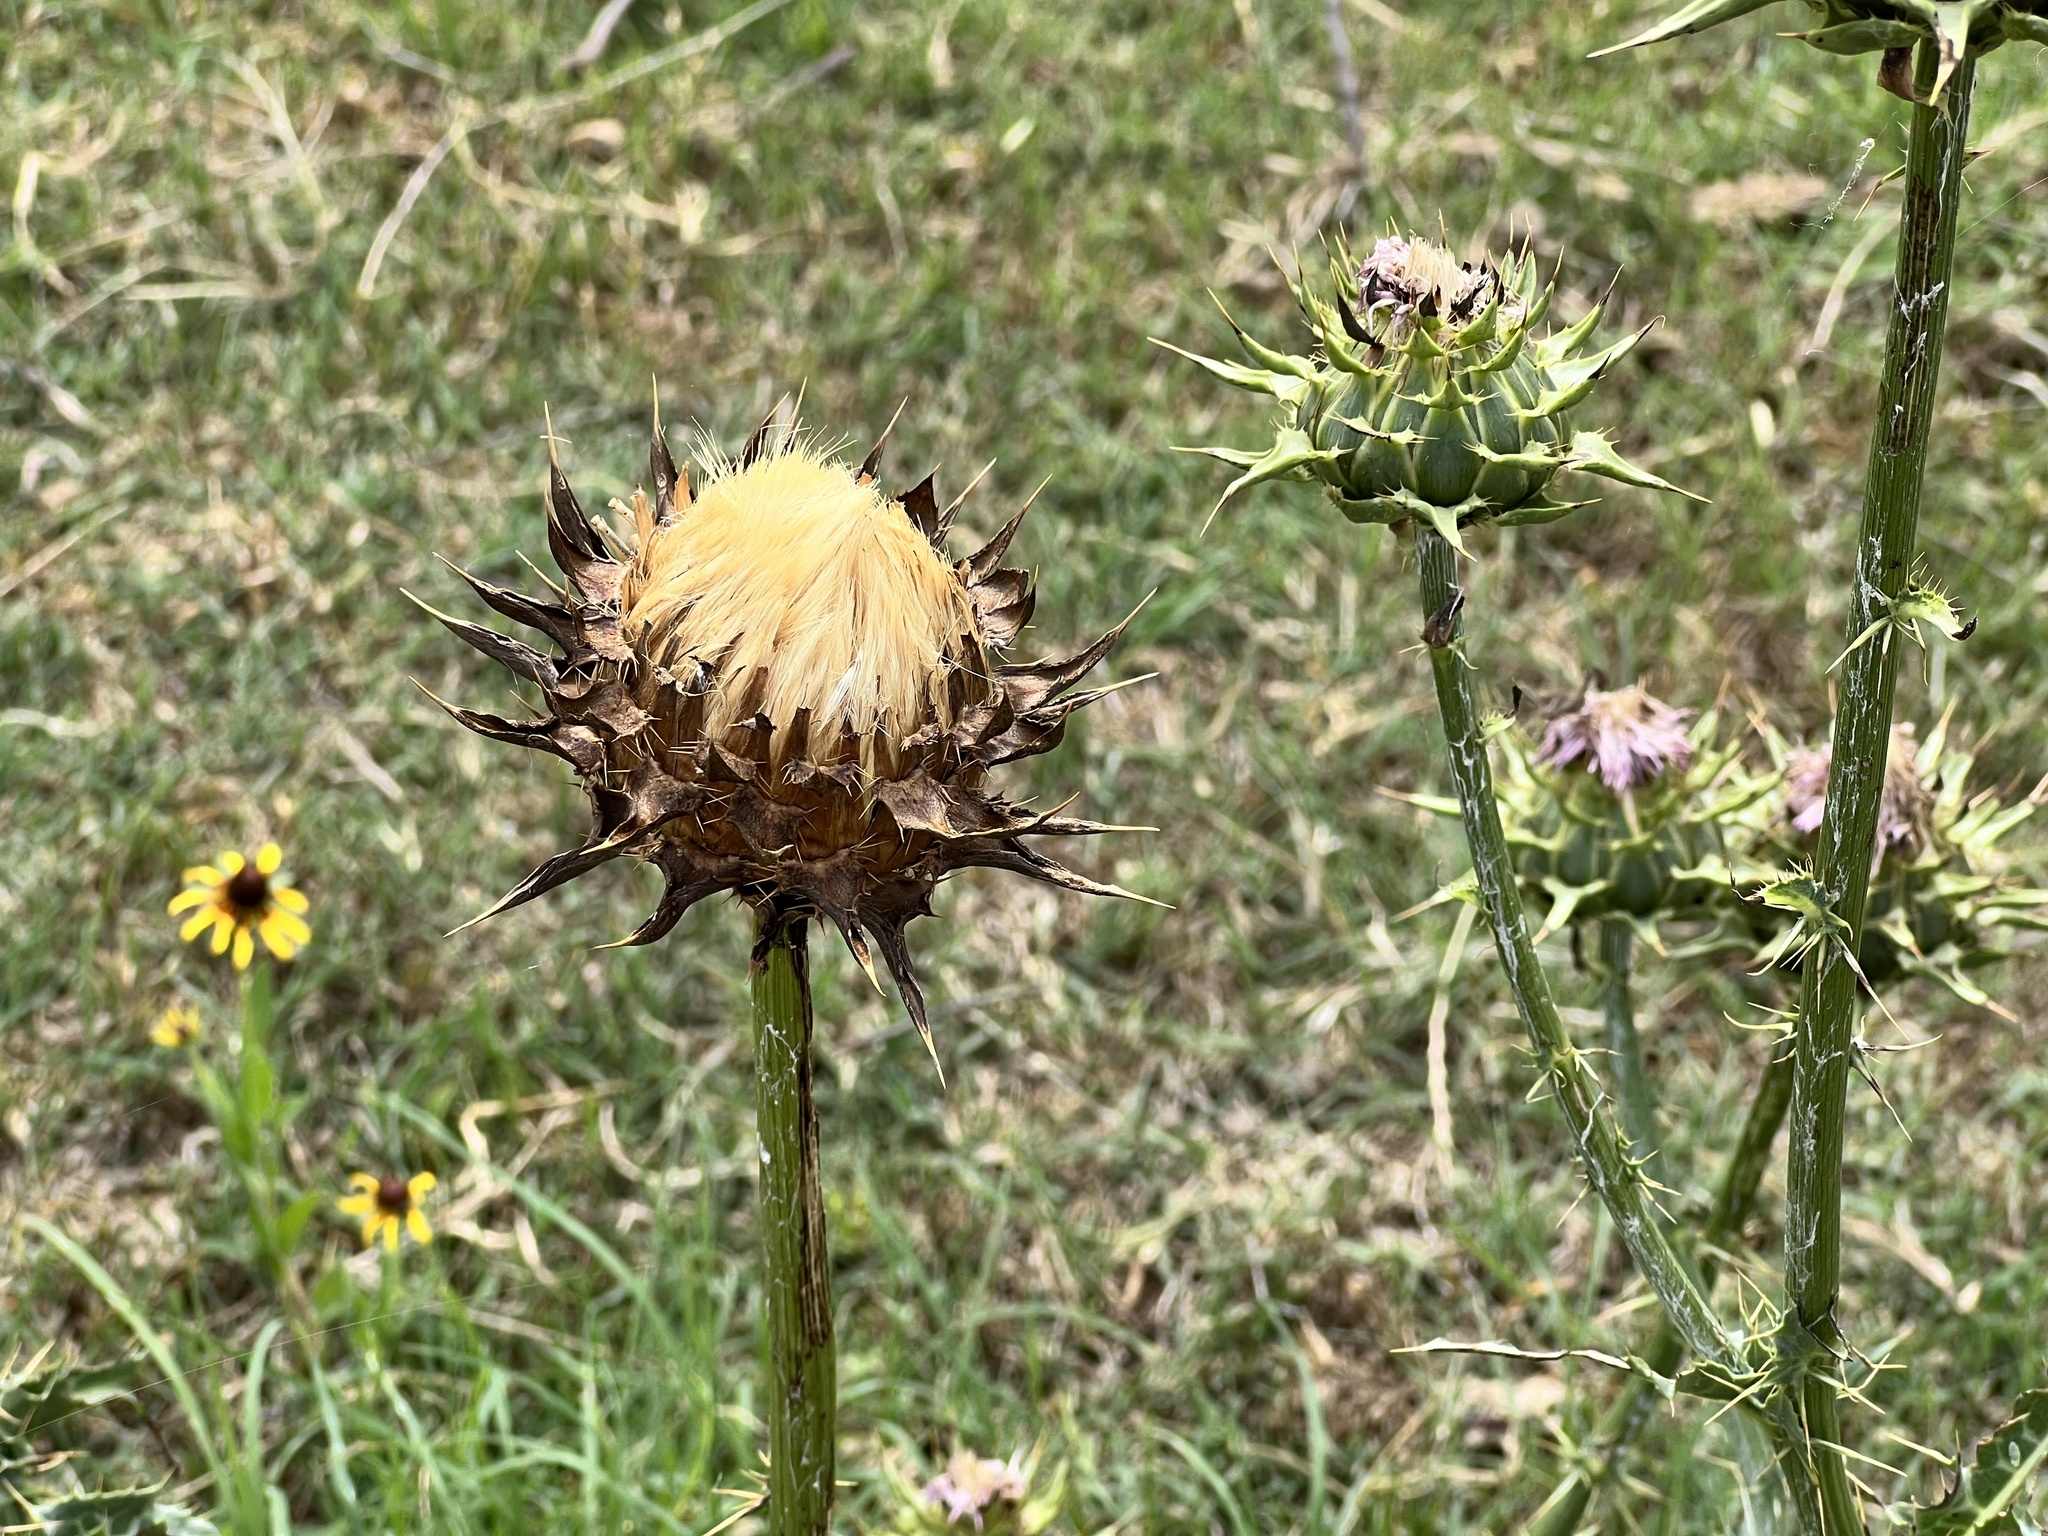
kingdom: Plantae
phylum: Tracheophyta
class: Magnoliopsida
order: Asterales
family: Asteraceae
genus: Silybum
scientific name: Silybum marianum
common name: Milk thistle
